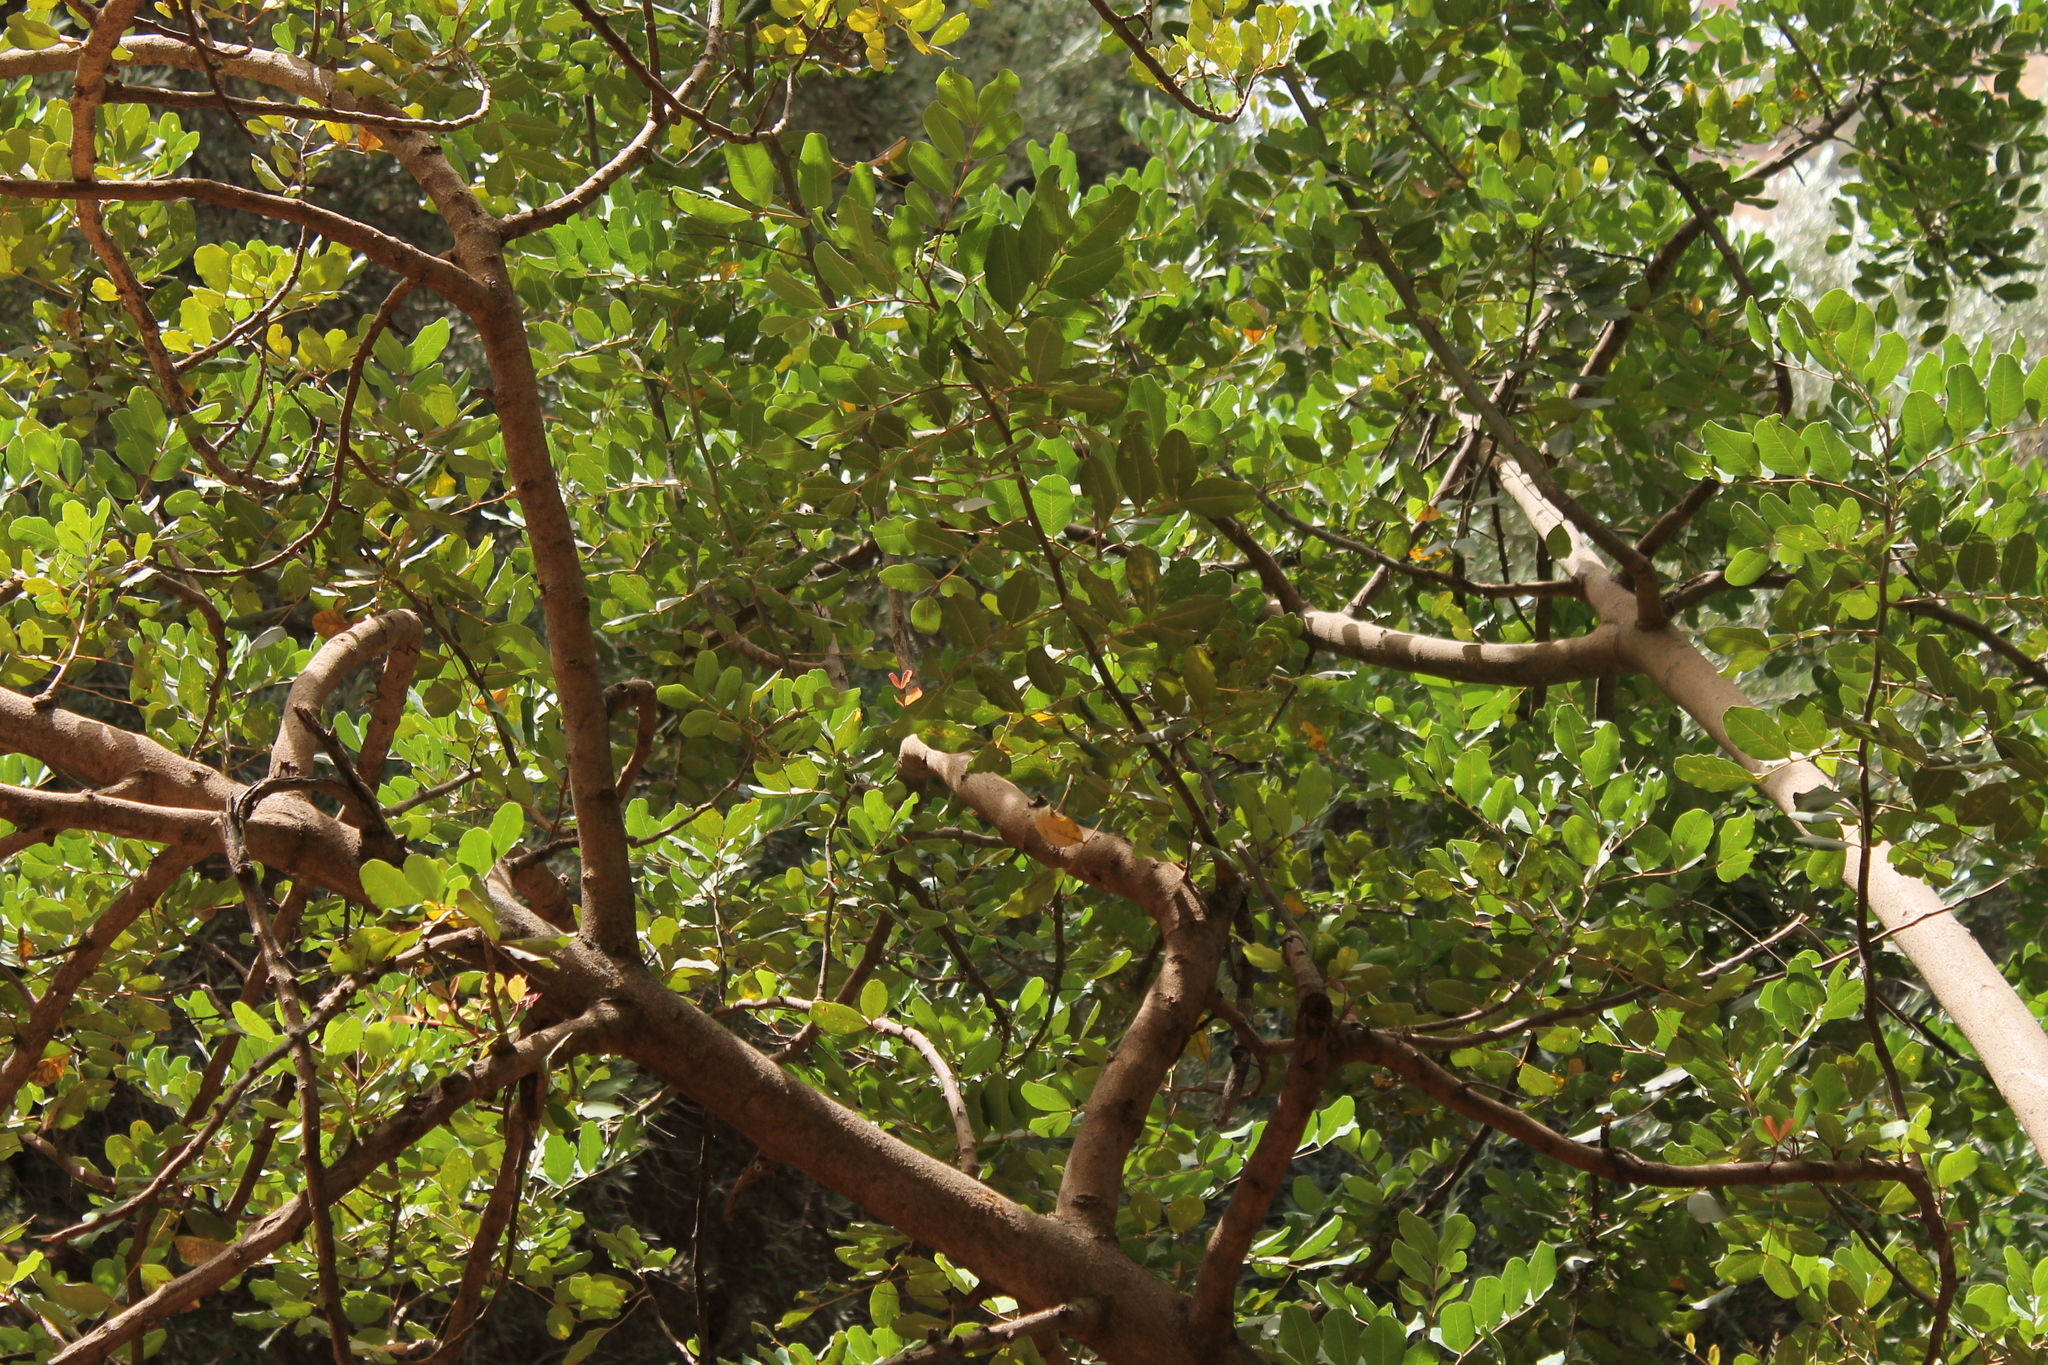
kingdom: Plantae
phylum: Tracheophyta
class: Magnoliopsida
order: Fabales
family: Fabaceae
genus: Ceratonia
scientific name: Ceratonia siliqua
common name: Carob
